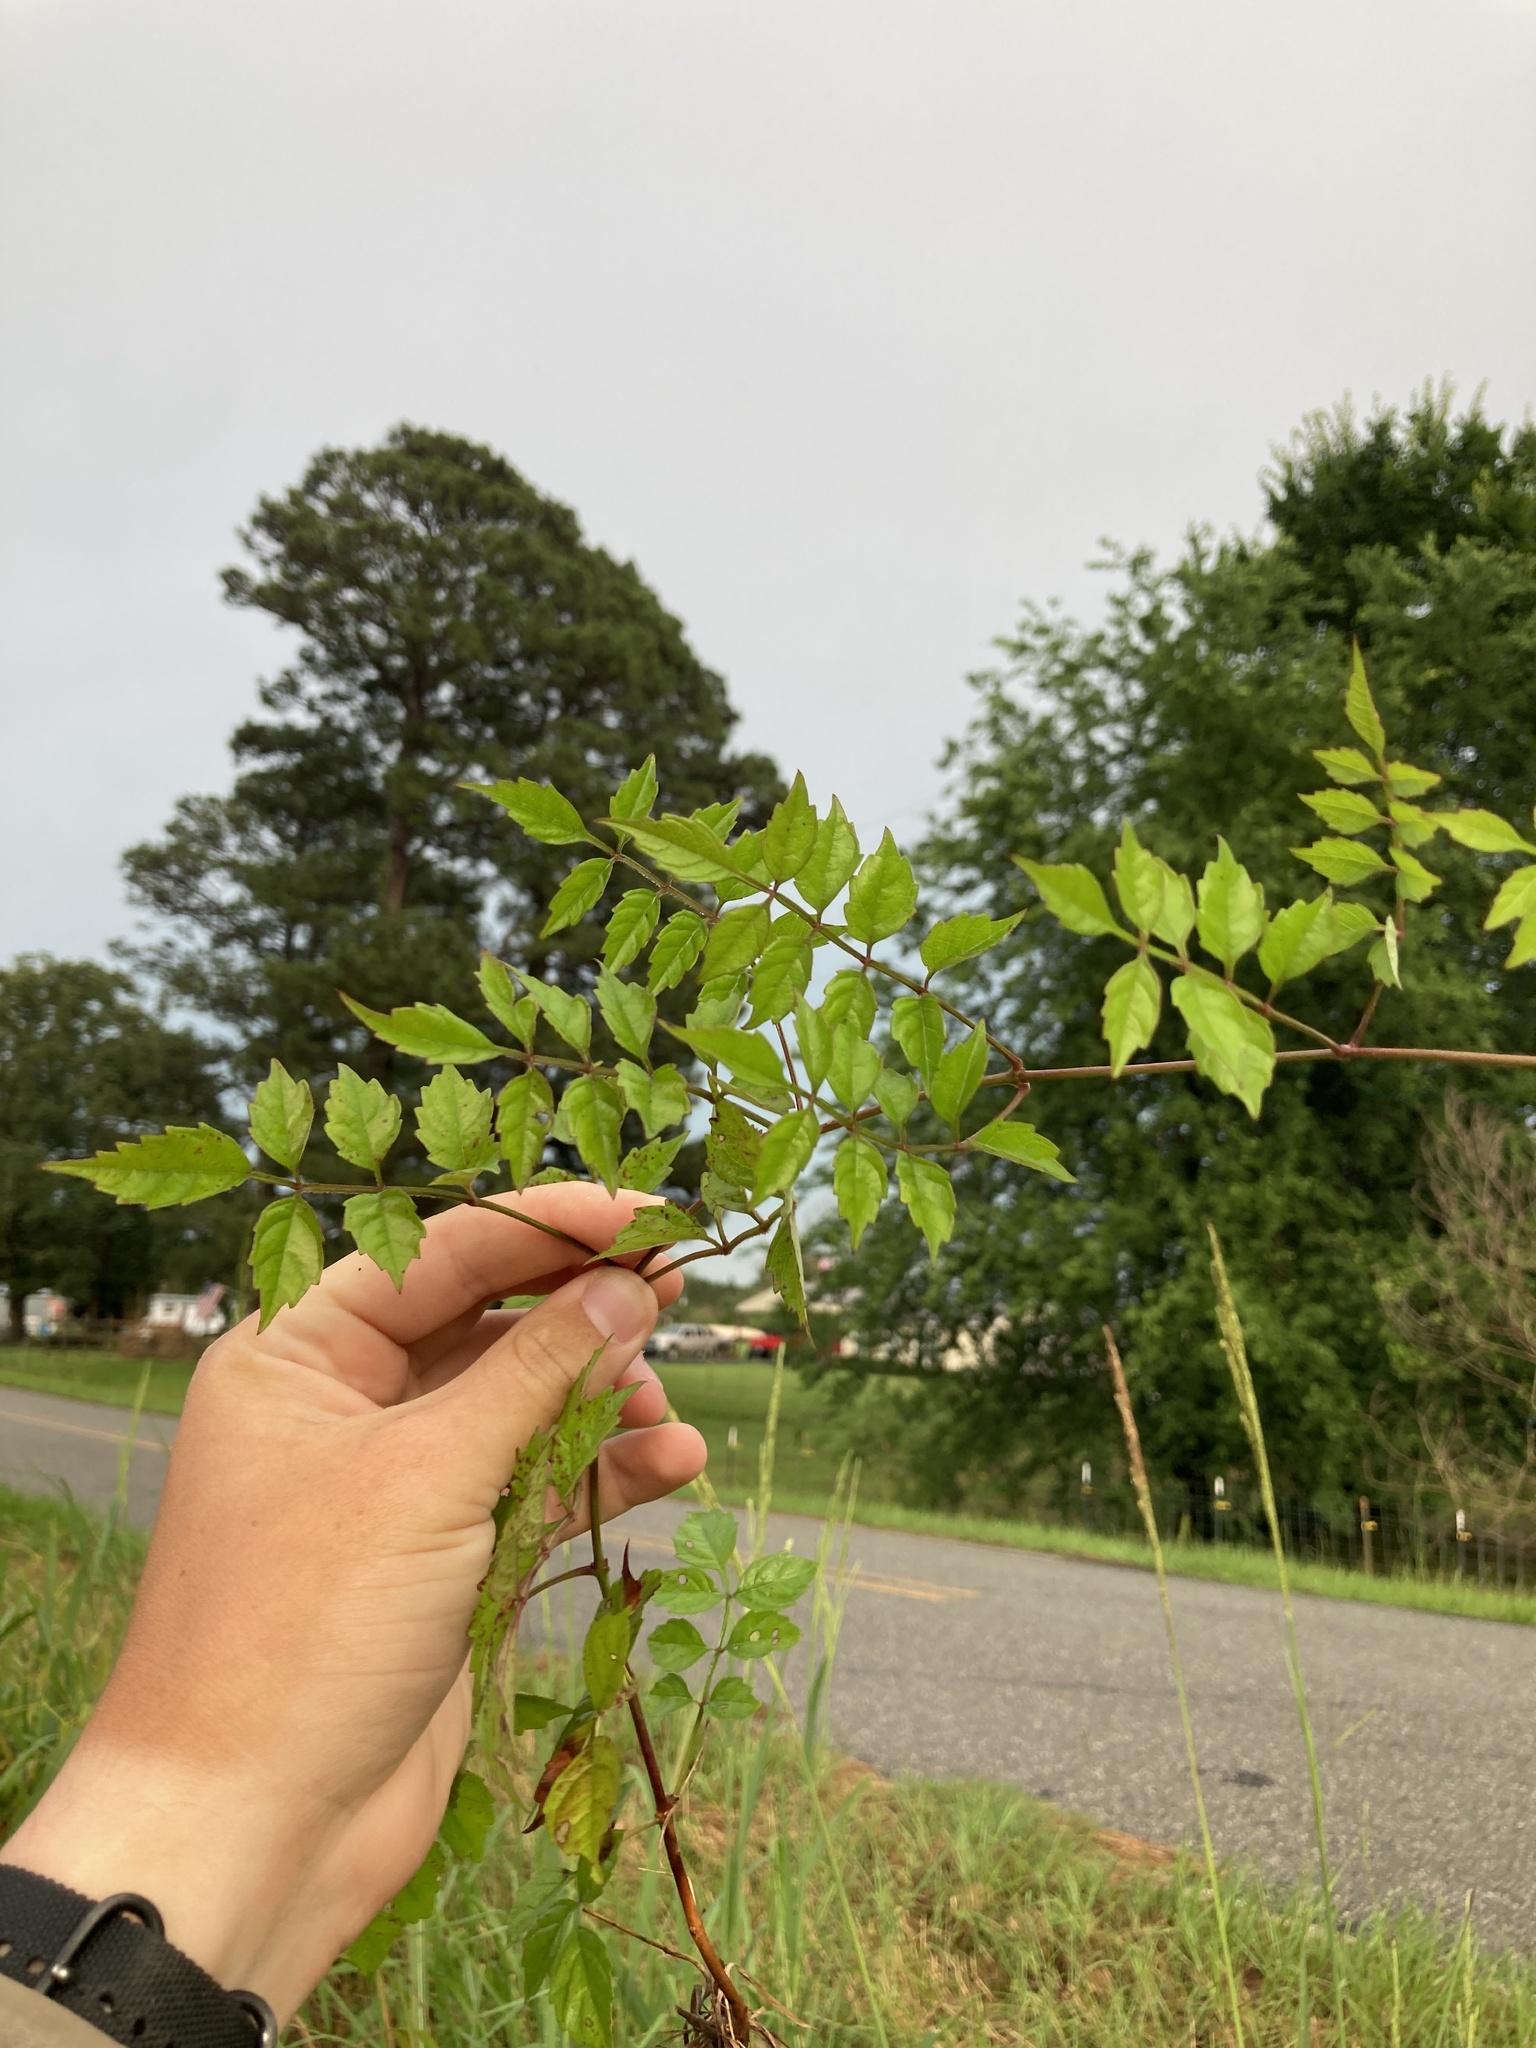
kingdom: Plantae
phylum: Tracheophyta
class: Magnoliopsida
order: Lamiales
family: Bignoniaceae
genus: Campsis
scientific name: Campsis radicans
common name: Trumpet-creeper
